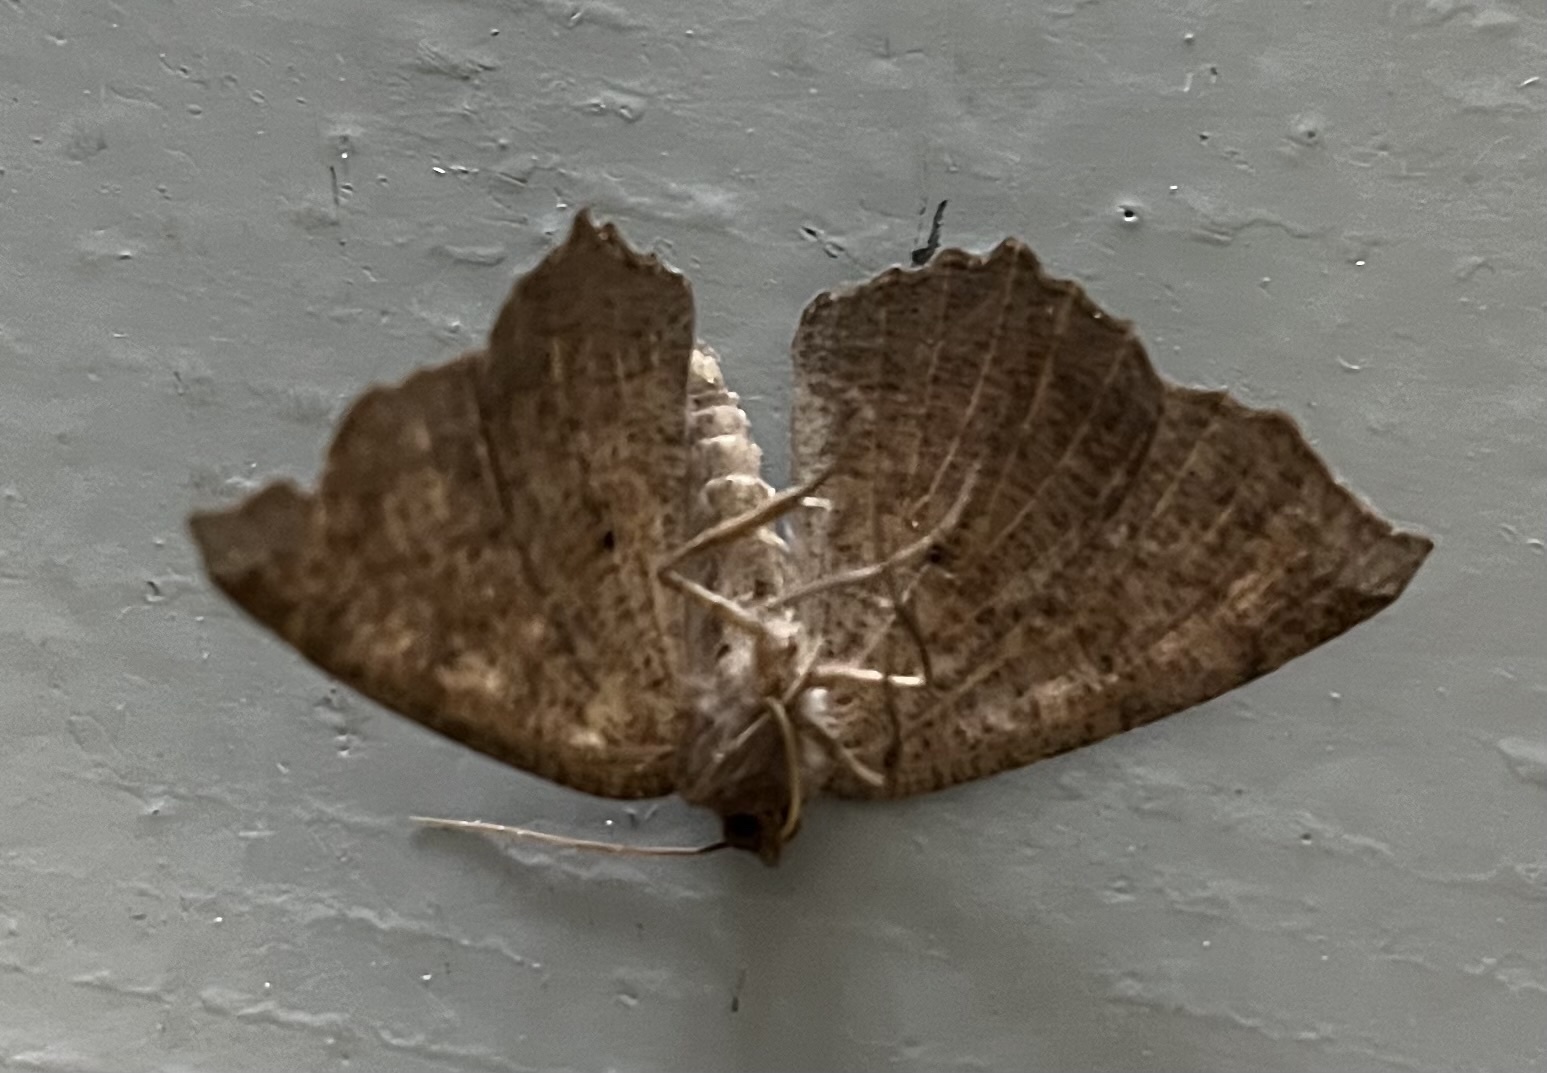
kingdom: Animalia
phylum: Arthropoda
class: Insecta
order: Lepidoptera
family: Geometridae
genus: Eutrapela
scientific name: Eutrapela clemataria
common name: Curved-toothed geometer
